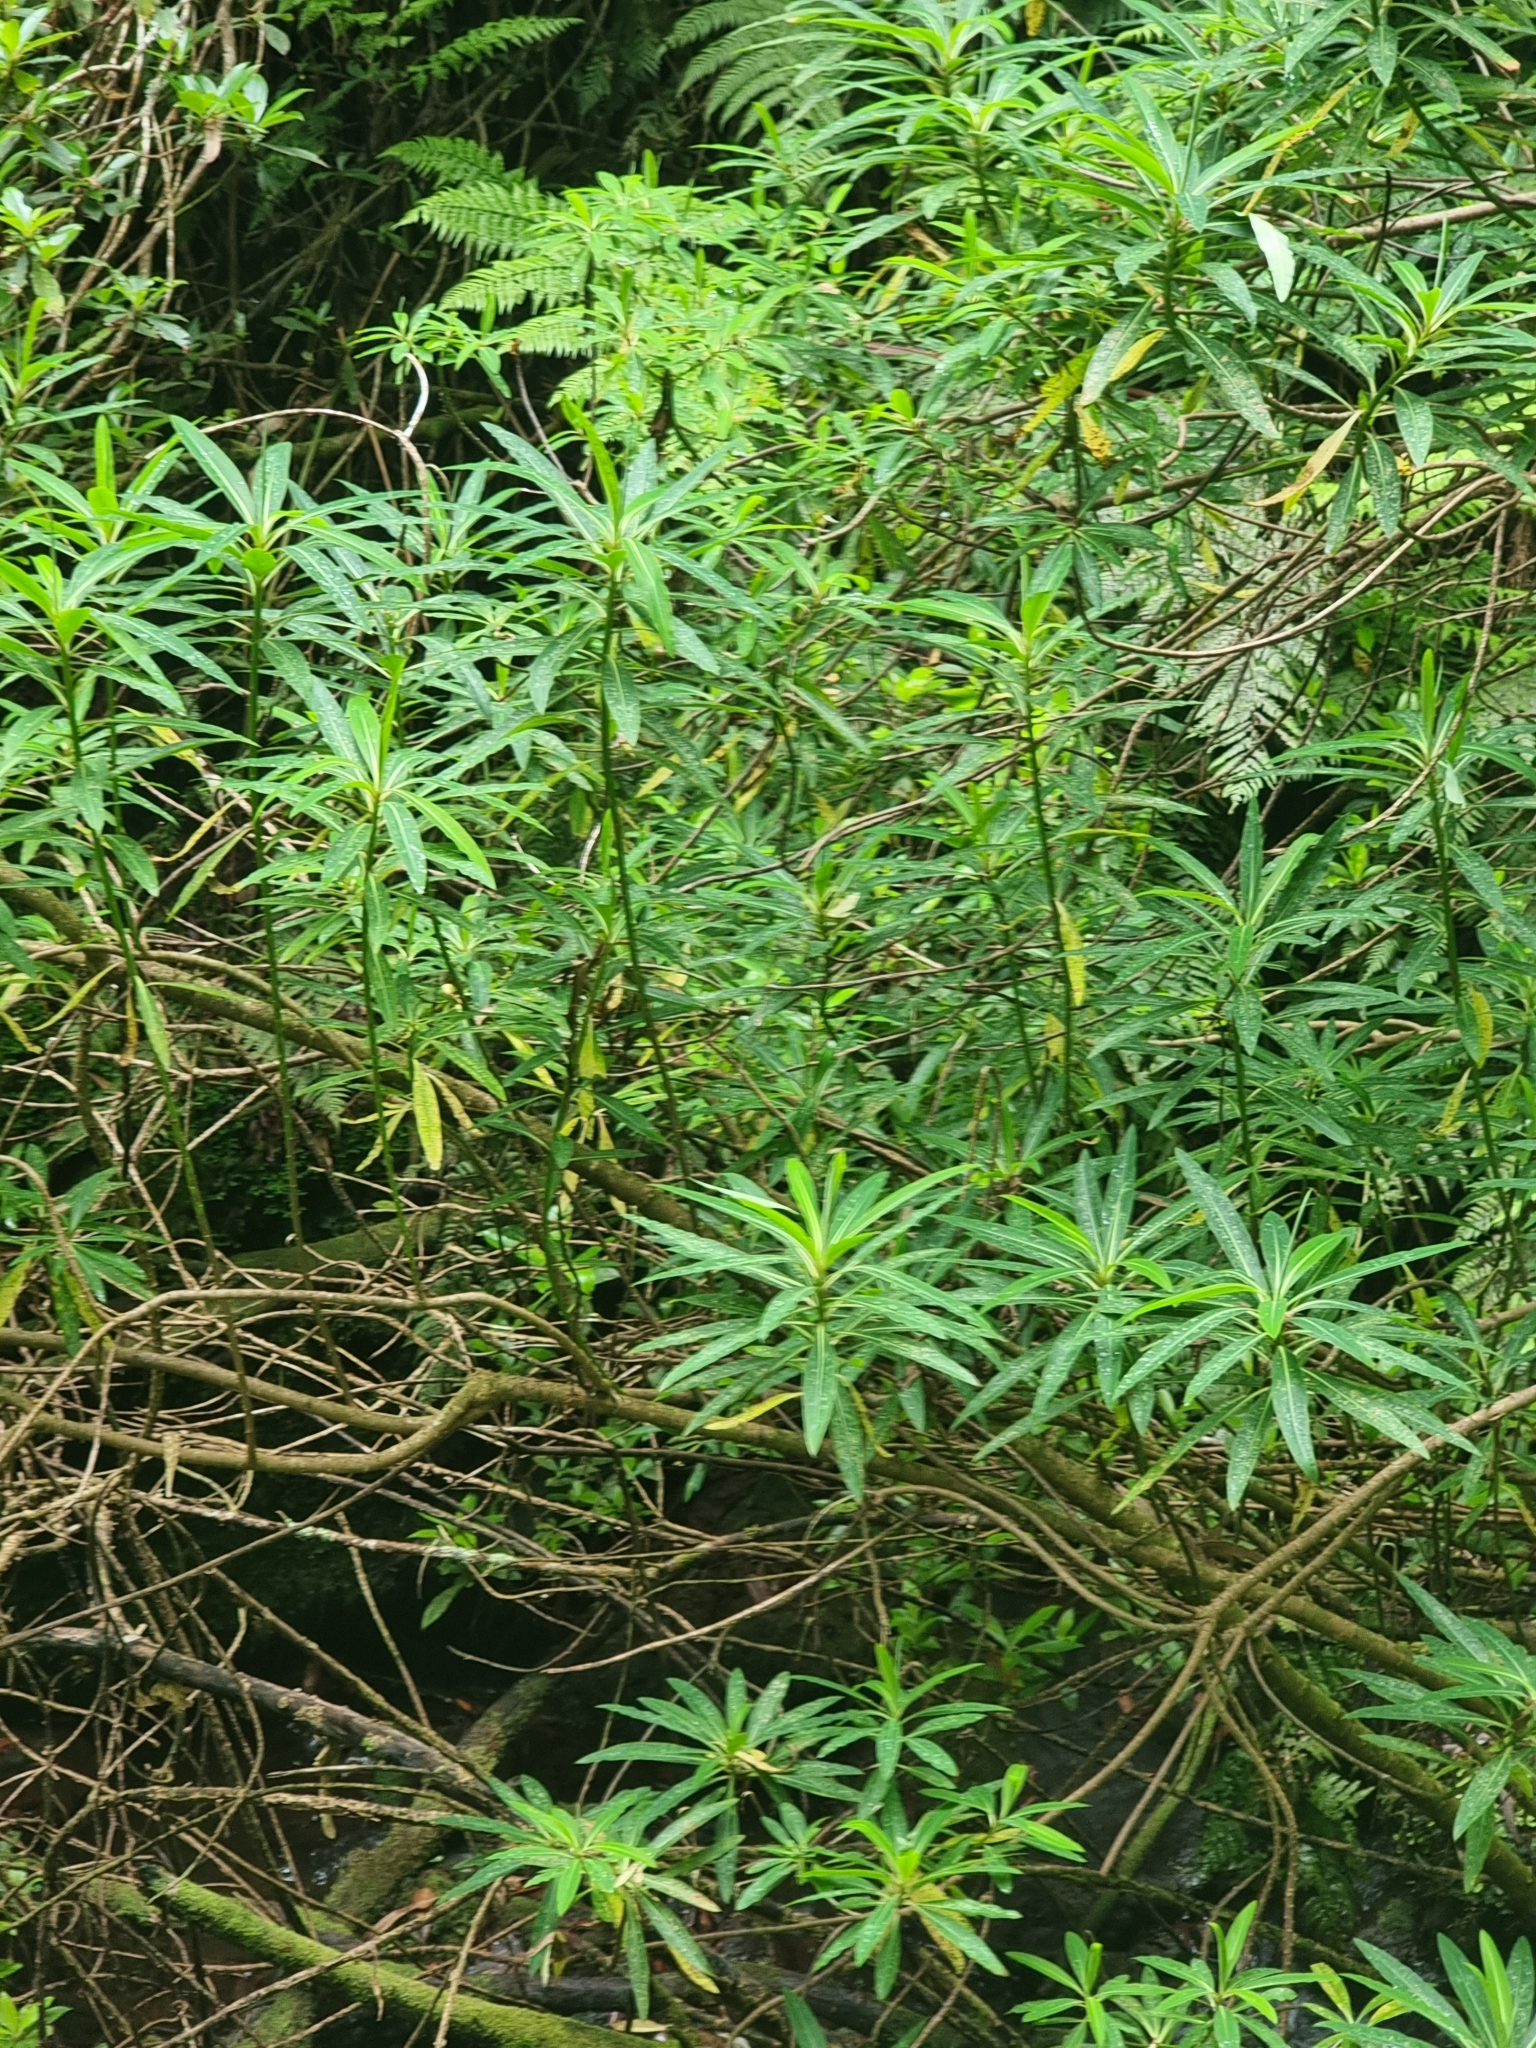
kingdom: Plantae
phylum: Tracheophyta
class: Magnoliopsida
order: Malpighiales
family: Euphorbiaceae
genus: Euphorbia
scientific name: Euphorbia mellifera
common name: Canary spurge
